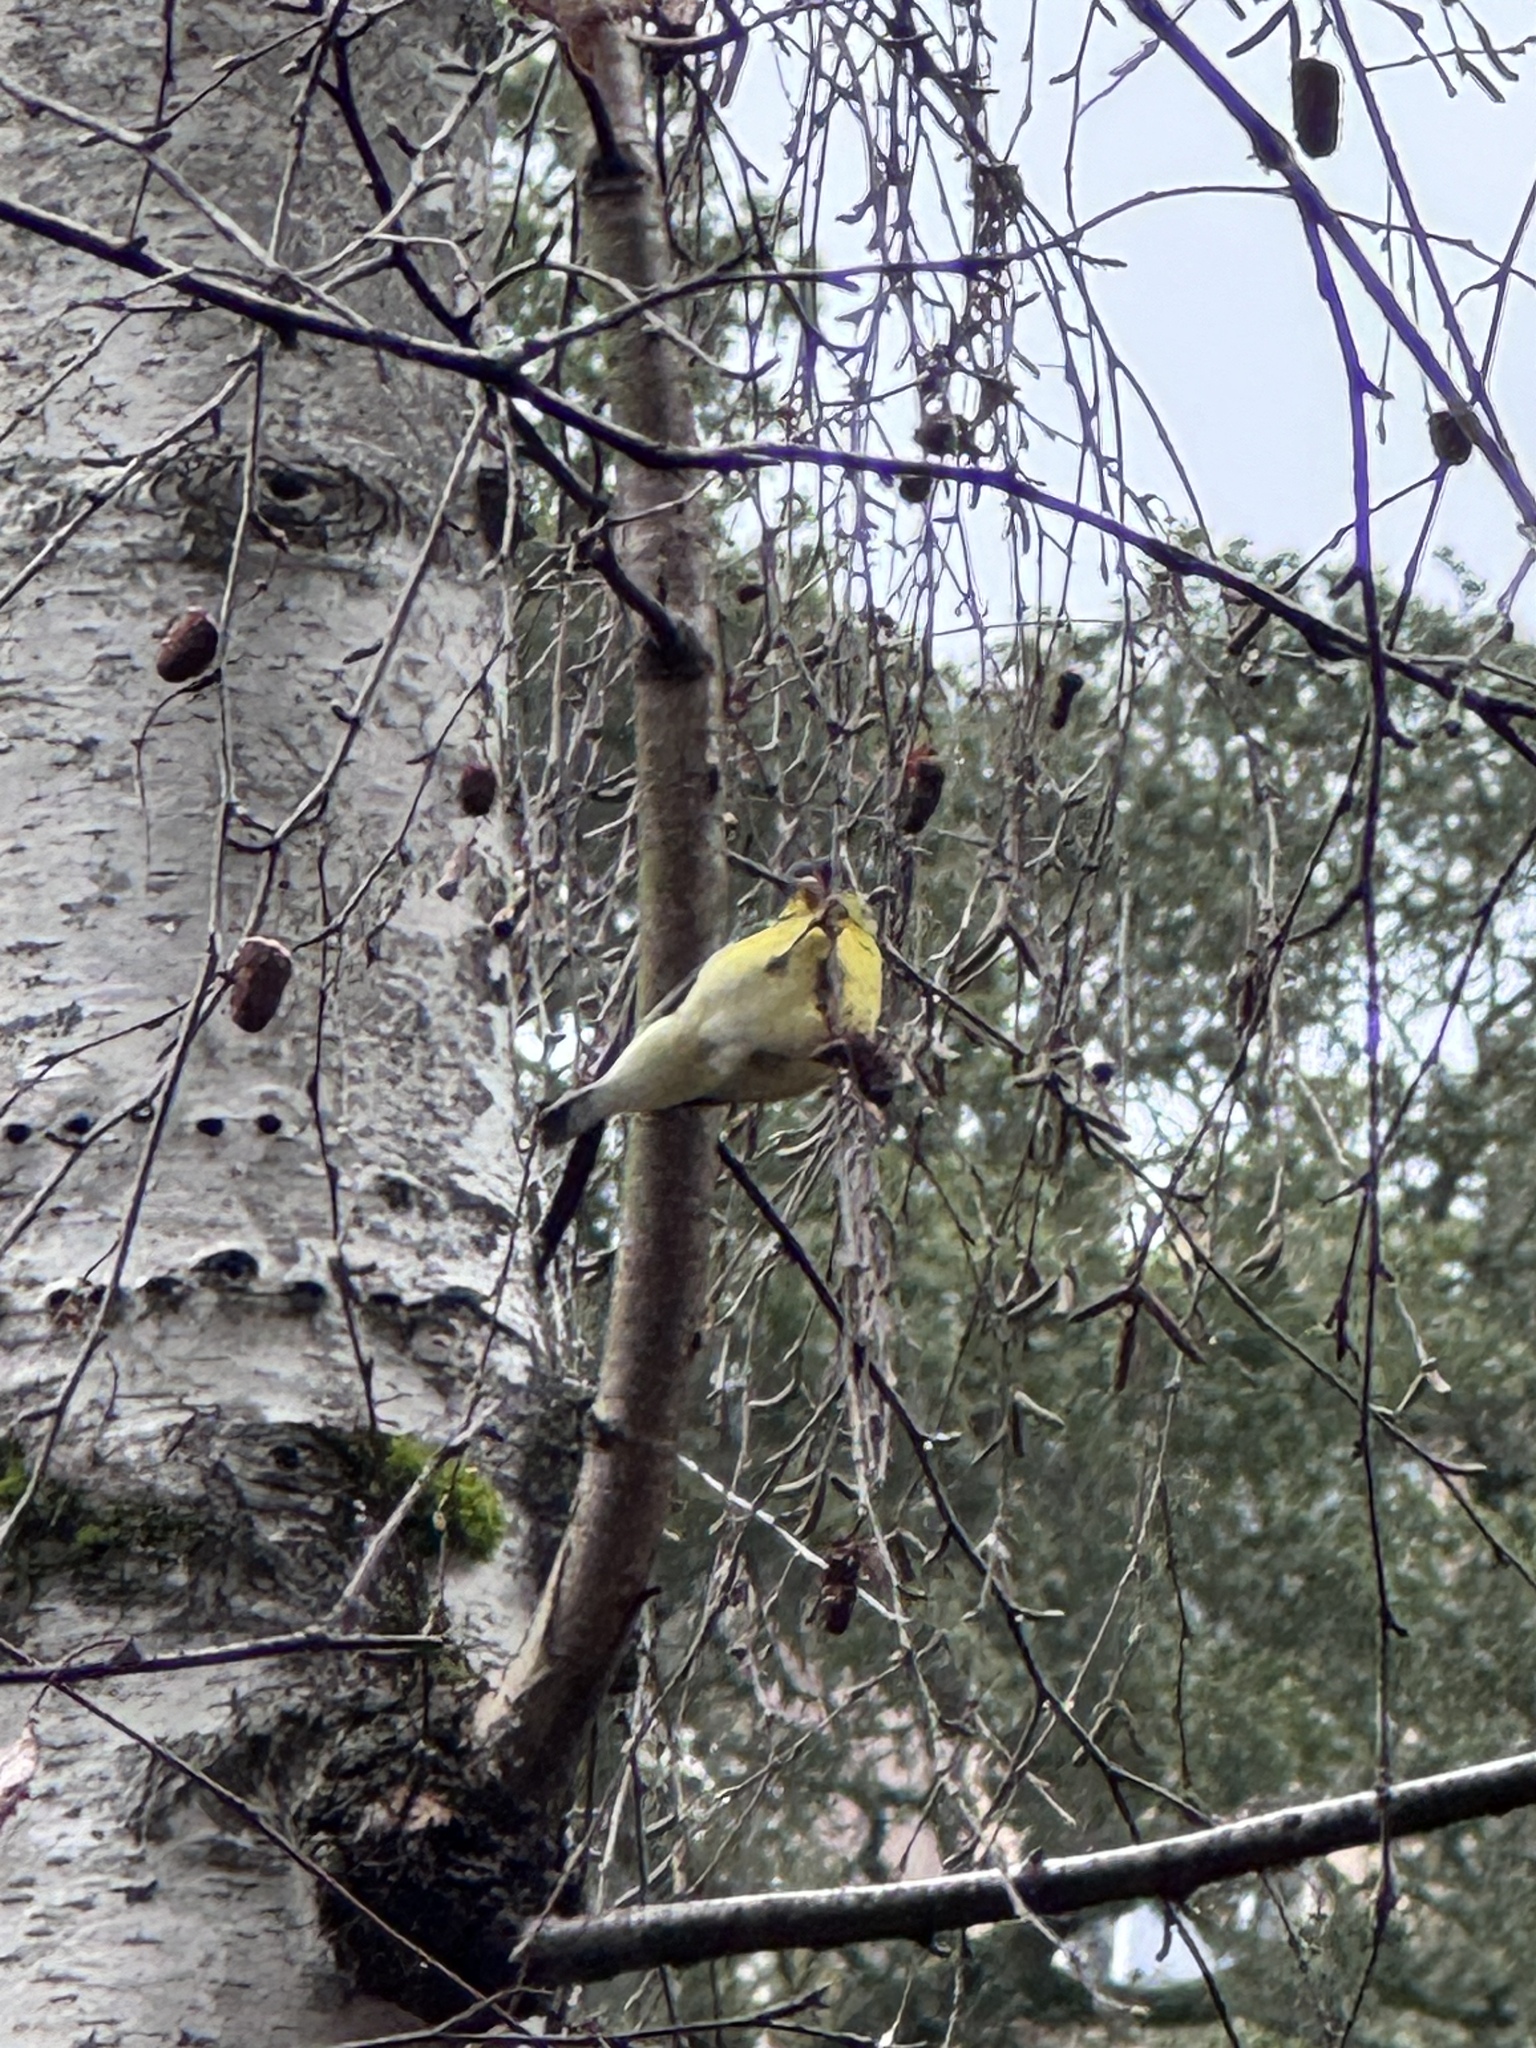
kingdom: Animalia
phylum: Chordata
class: Aves
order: Passeriformes
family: Fringillidae
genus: Spinus
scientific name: Spinus psaltria
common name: Lesser goldfinch
